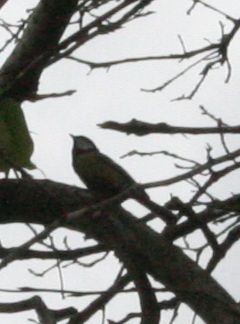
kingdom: Animalia
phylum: Chordata
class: Aves
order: Passeriformes
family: Paridae
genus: Parus
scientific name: Parus major
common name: Great tit
